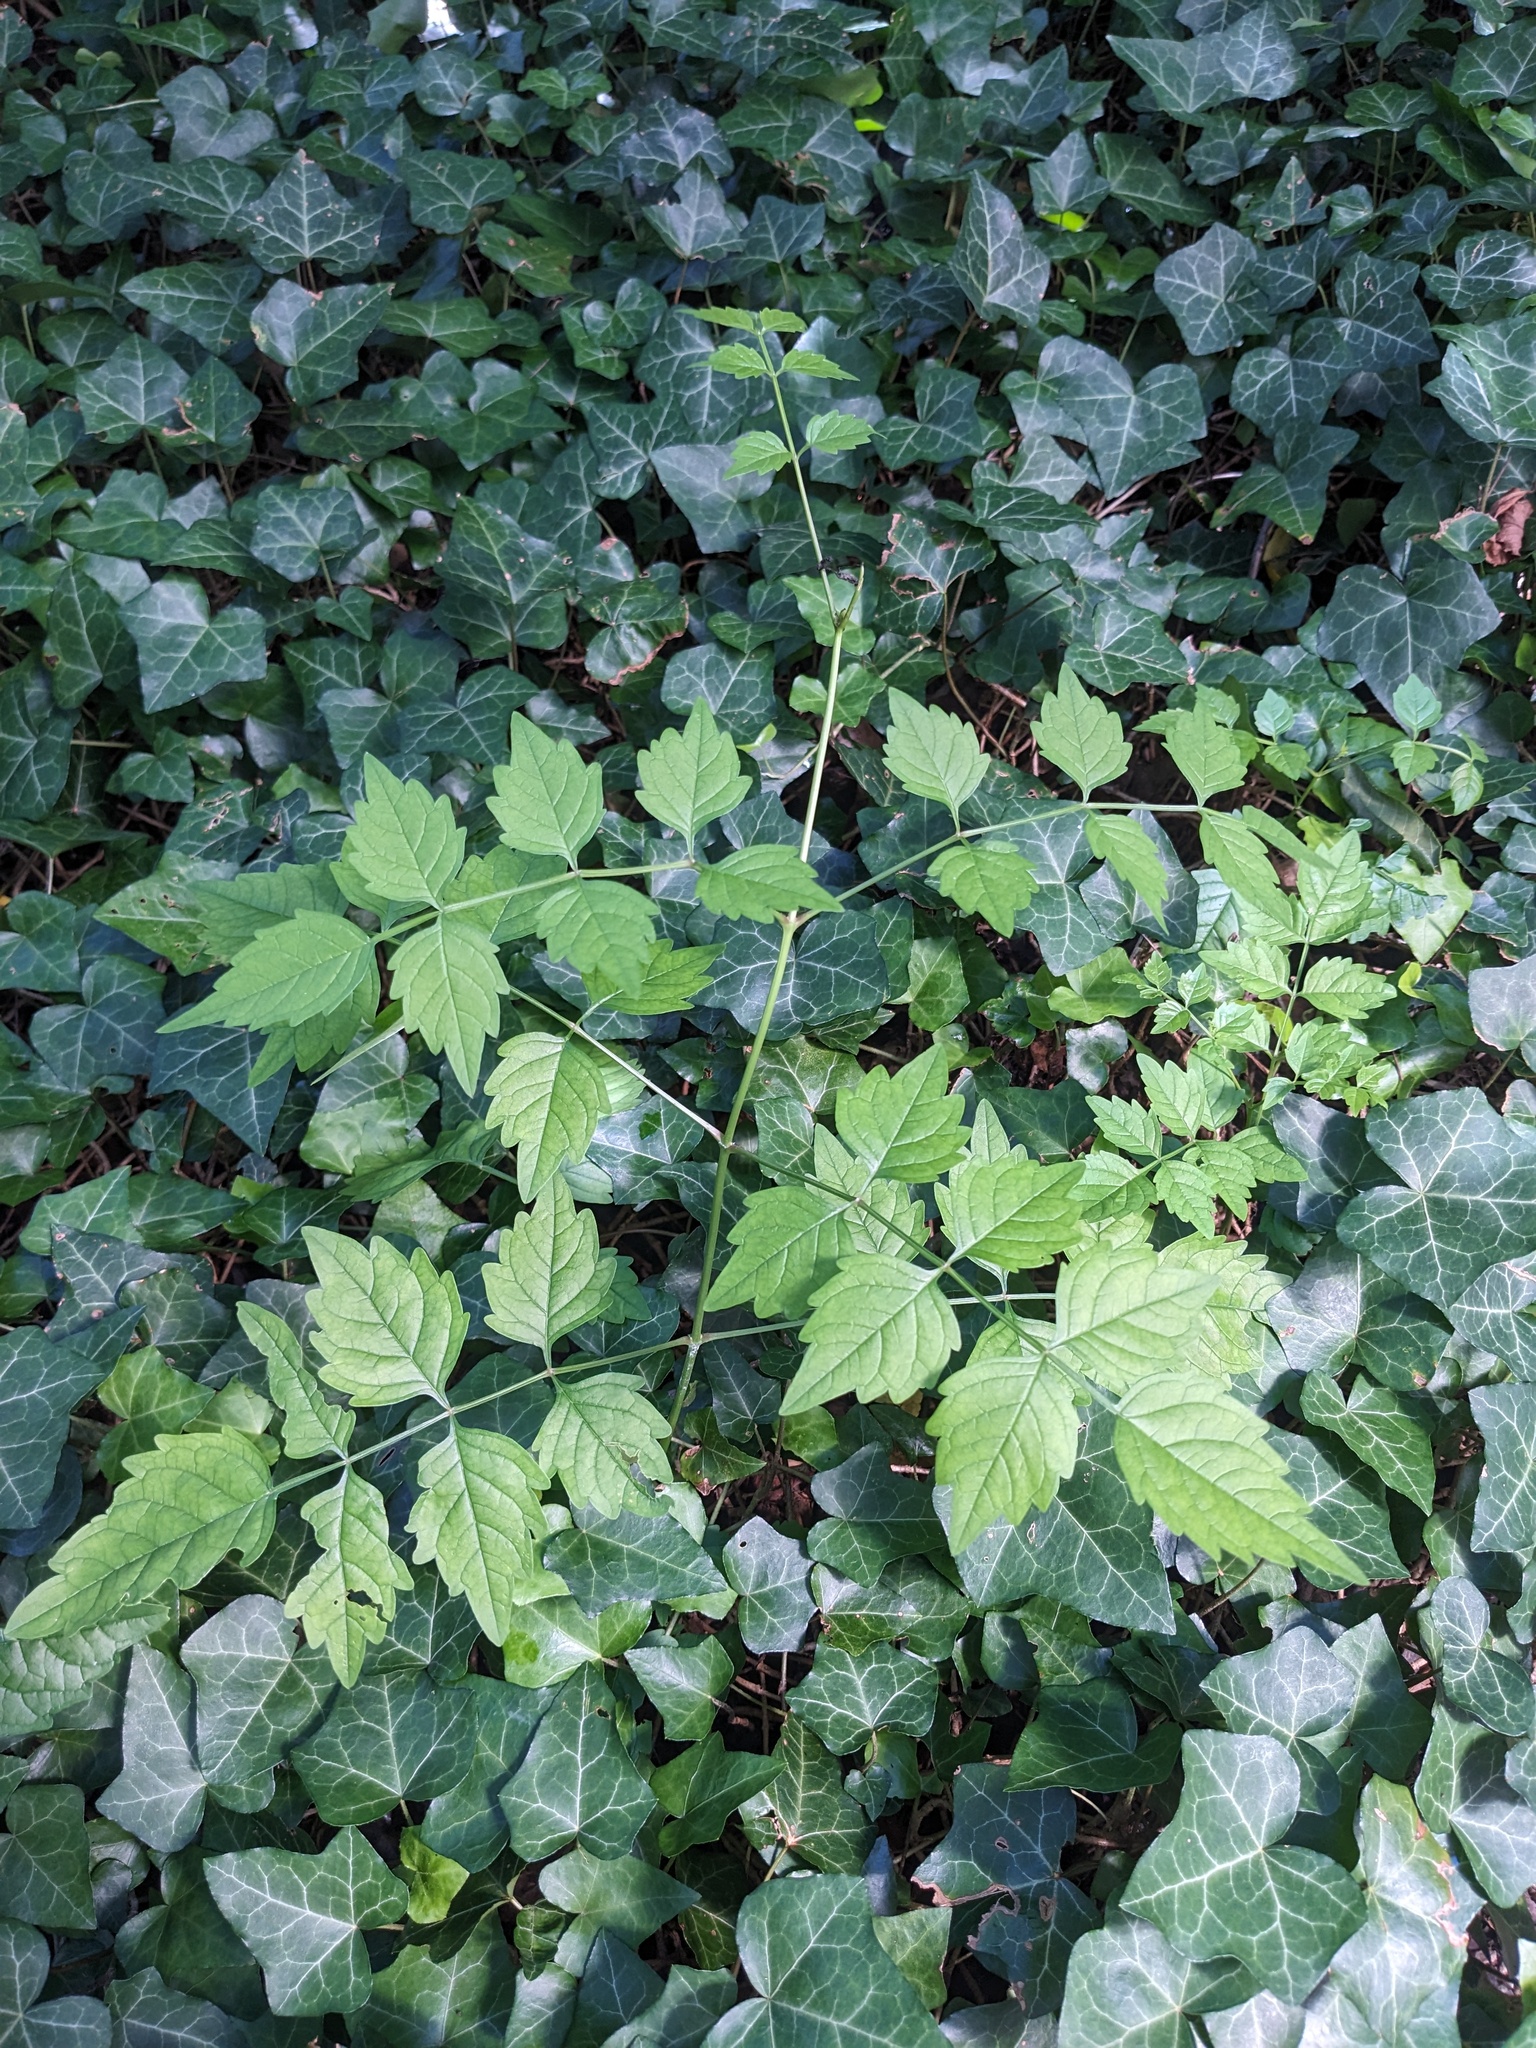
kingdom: Plantae
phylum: Tracheophyta
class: Magnoliopsida
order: Lamiales
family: Bignoniaceae
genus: Campsis
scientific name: Campsis radicans
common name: Trumpet-creeper
